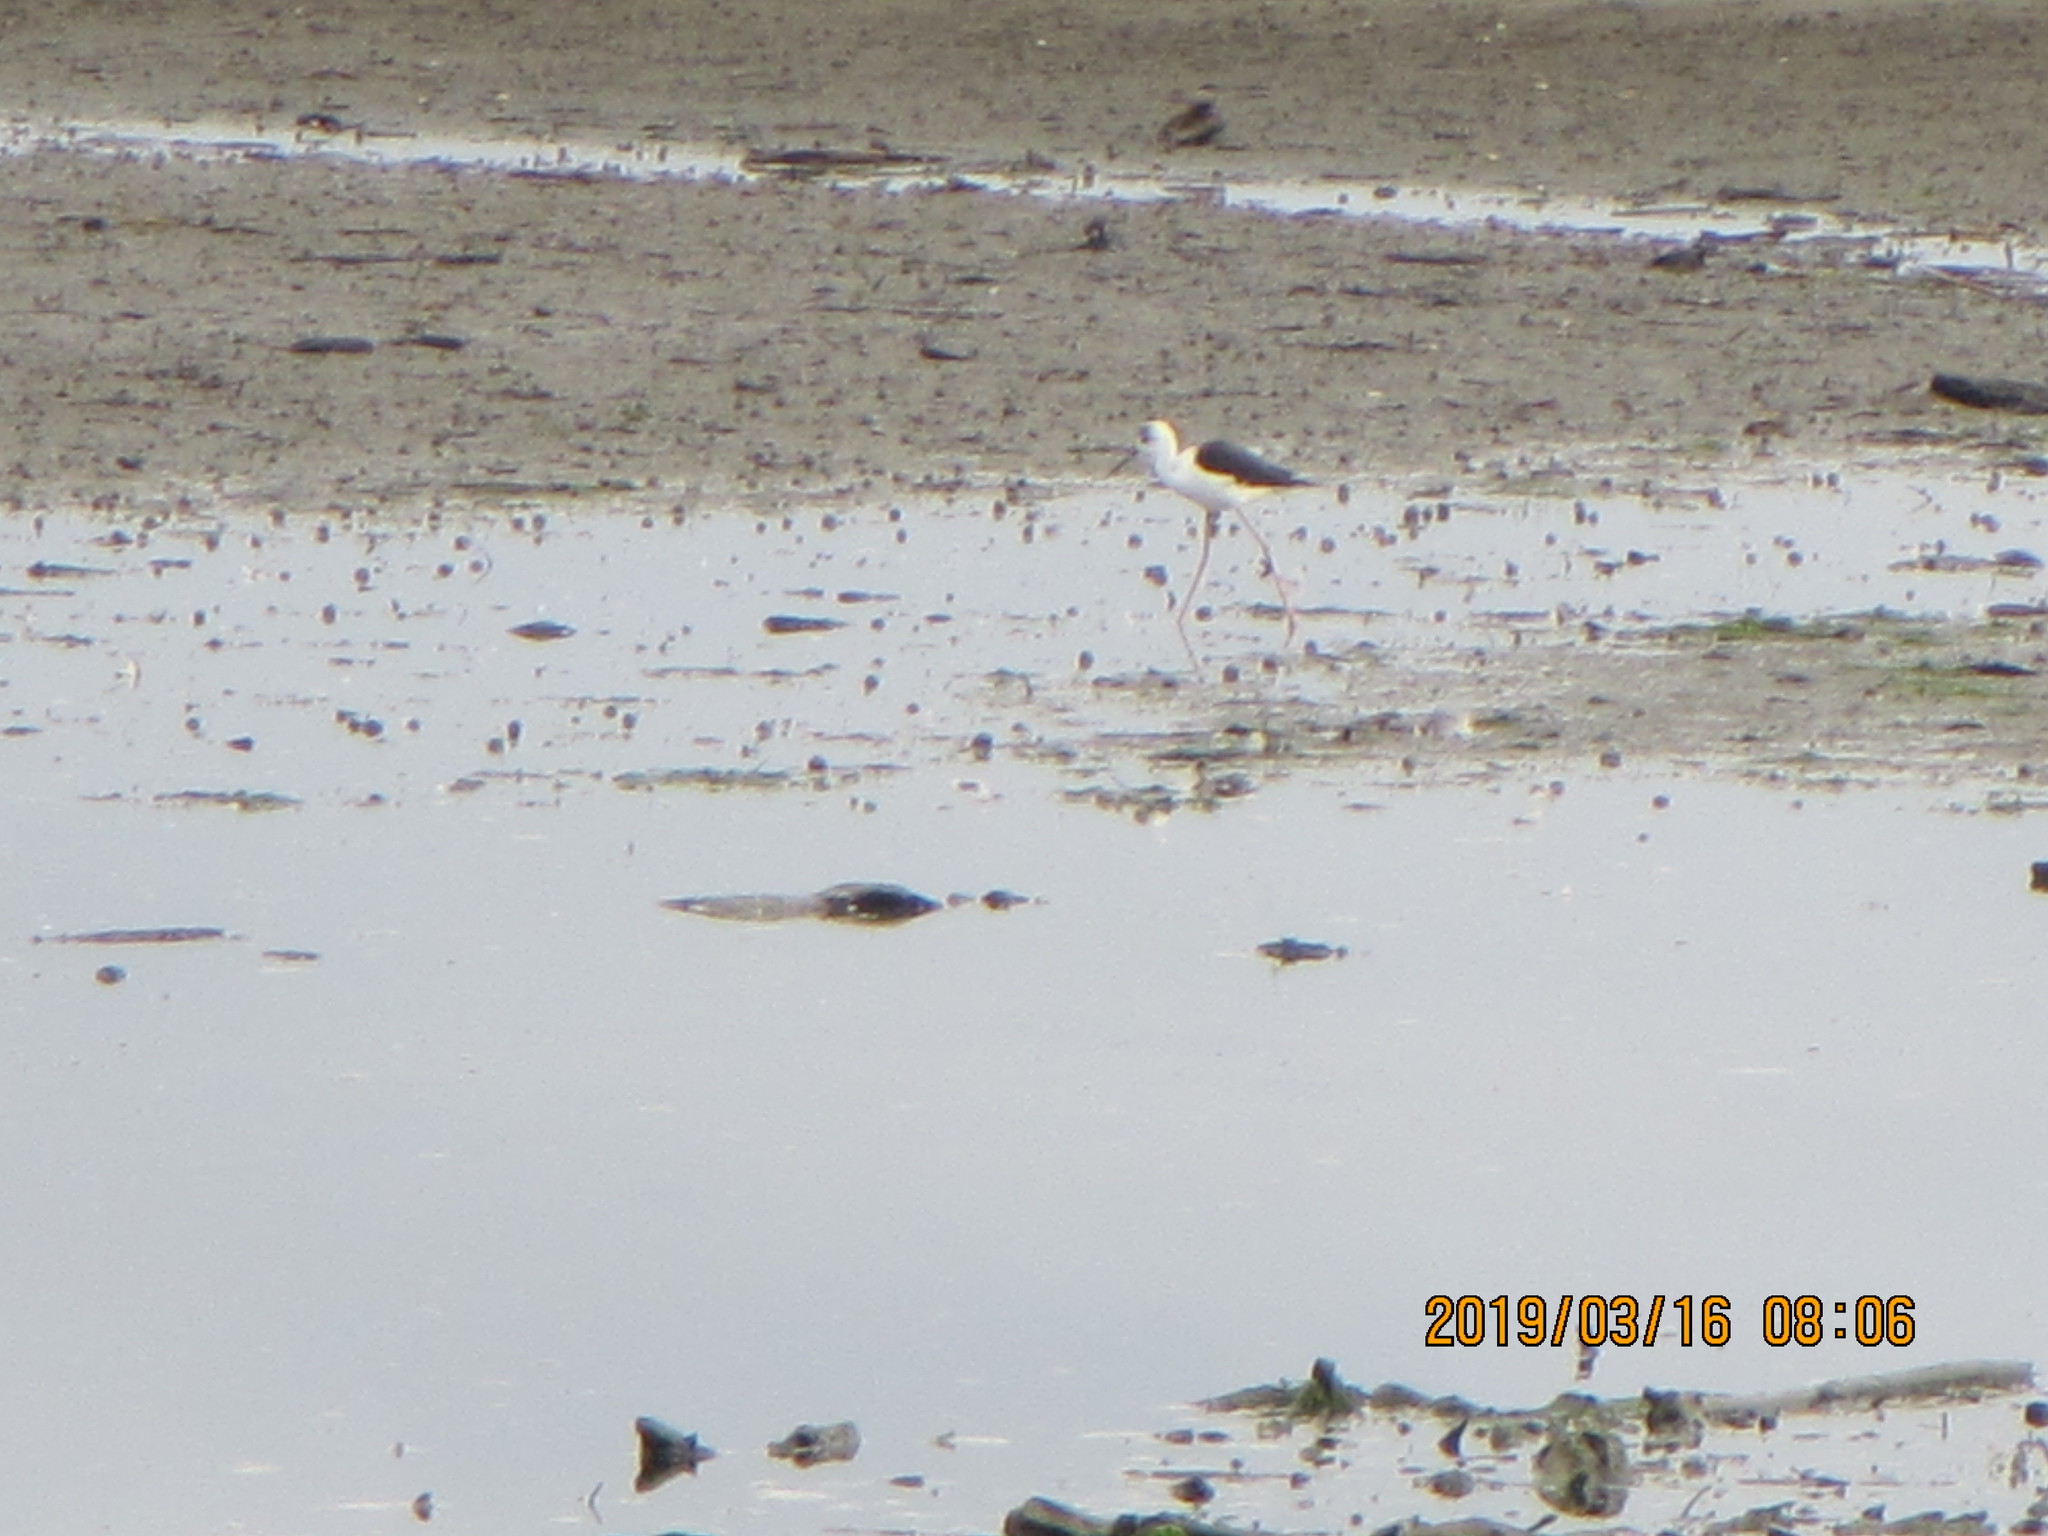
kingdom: Animalia
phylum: Chordata
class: Aves
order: Charadriiformes
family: Recurvirostridae
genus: Himantopus
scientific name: Himantopus leucocephalus
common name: White-headed stilt
